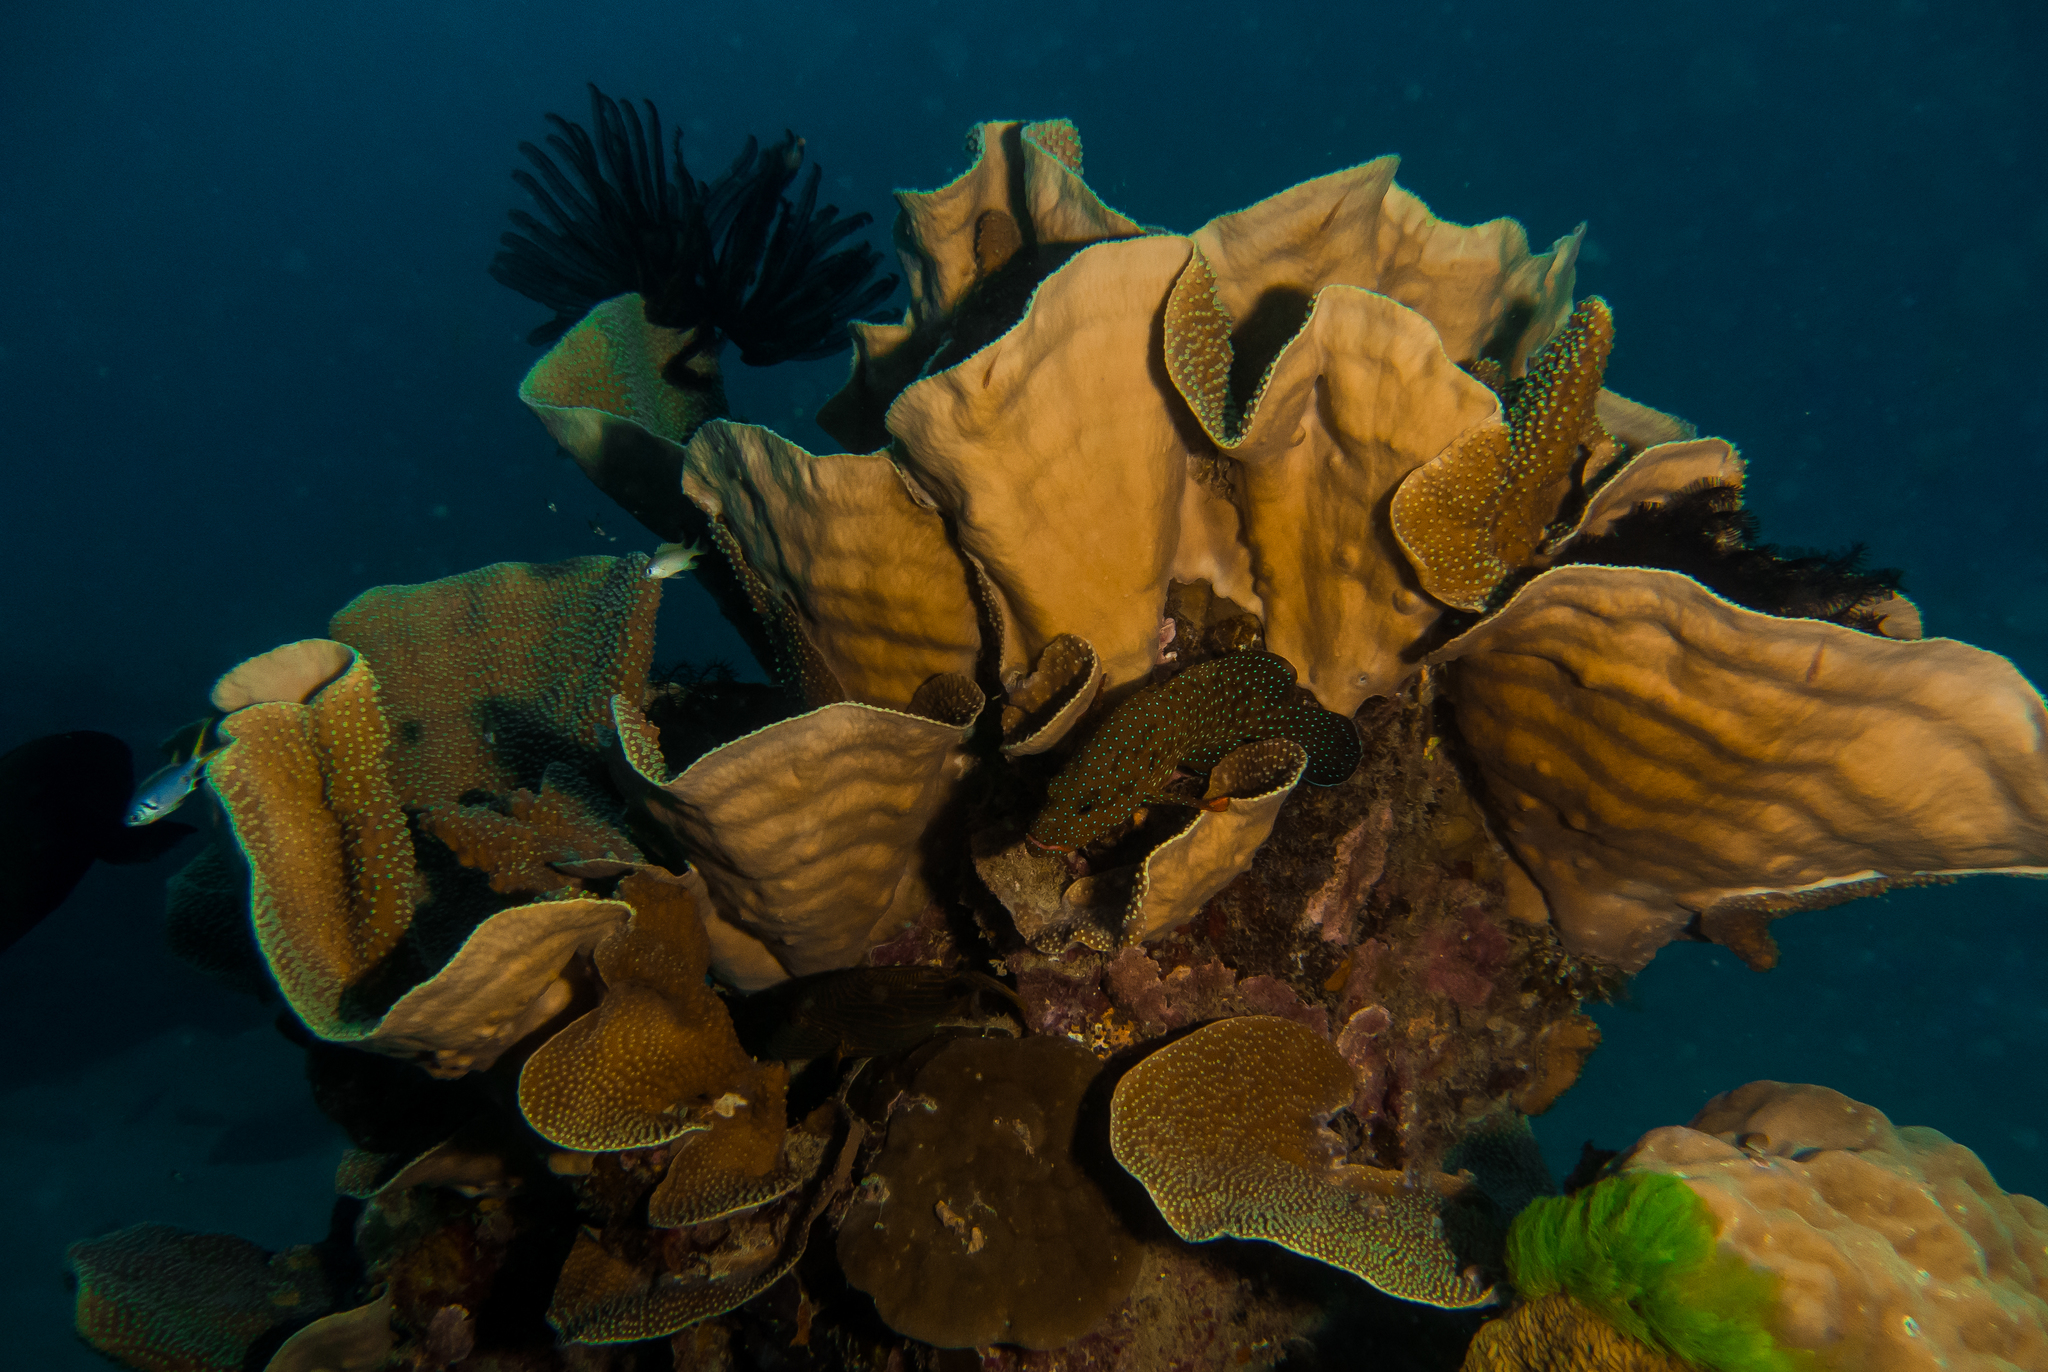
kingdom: Animalia
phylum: Cnidaria
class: Anthozoa
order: Scleractinia
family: Dendrophylliidae
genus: Turbinaria
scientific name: Turbinaria mesenterina
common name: Disc coral
